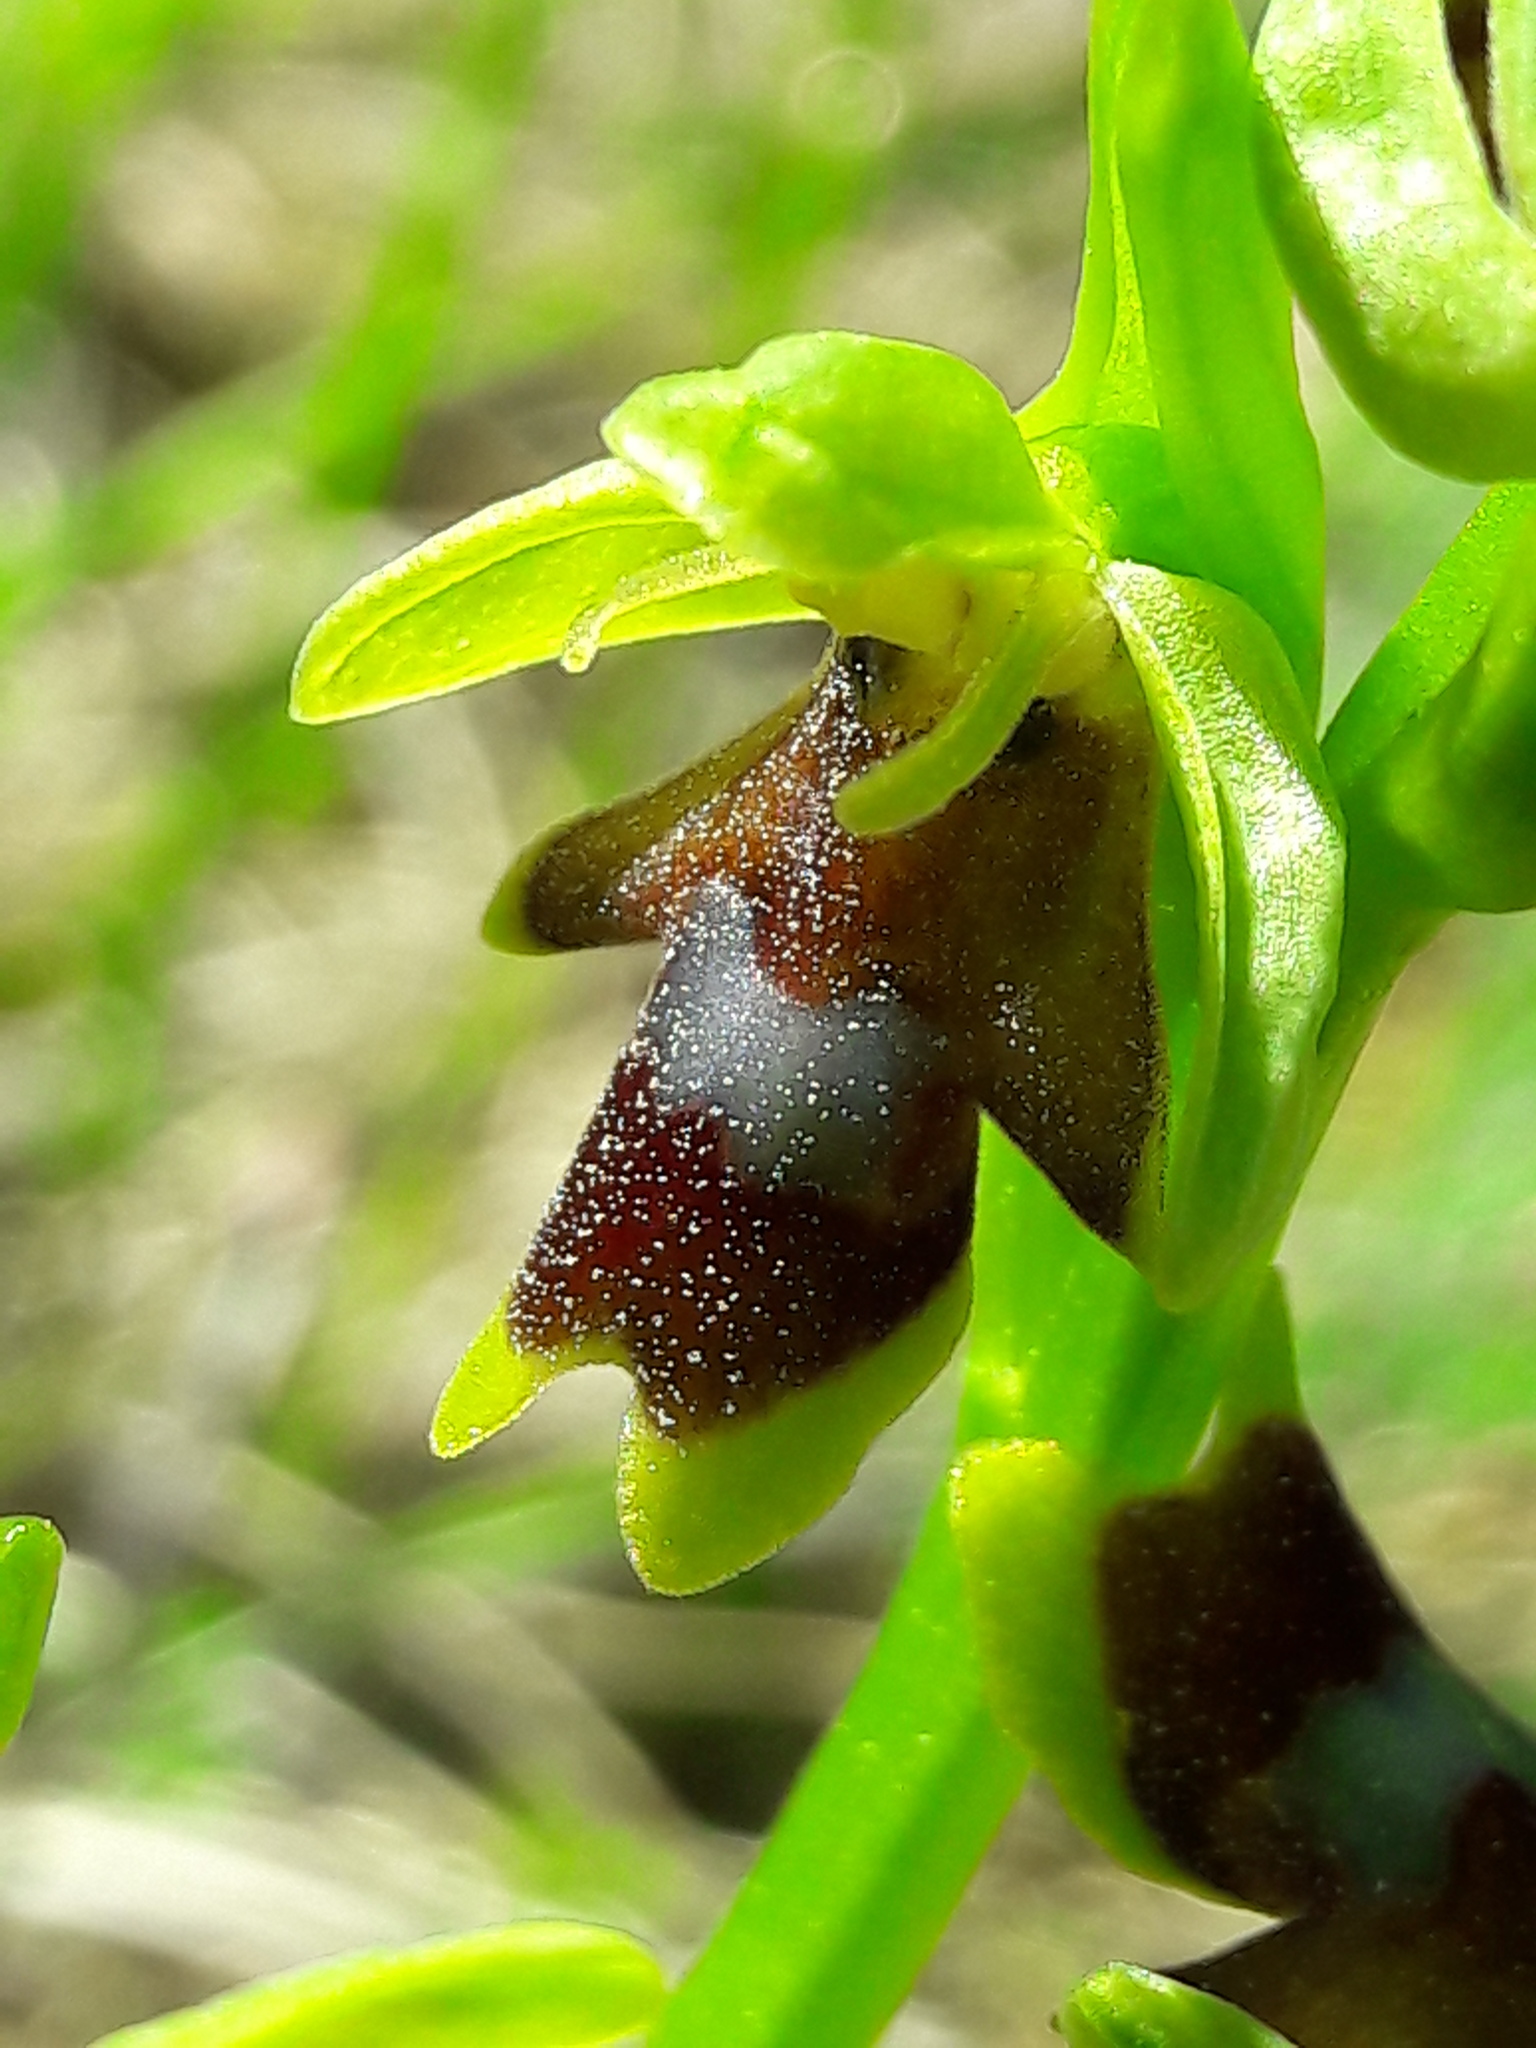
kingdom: Plantae
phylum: Tracheophyta
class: Liliopsida
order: Asparagales
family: Orchidaceae
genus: Ophrys
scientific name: Ophrys insectifera
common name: Fly orchid
